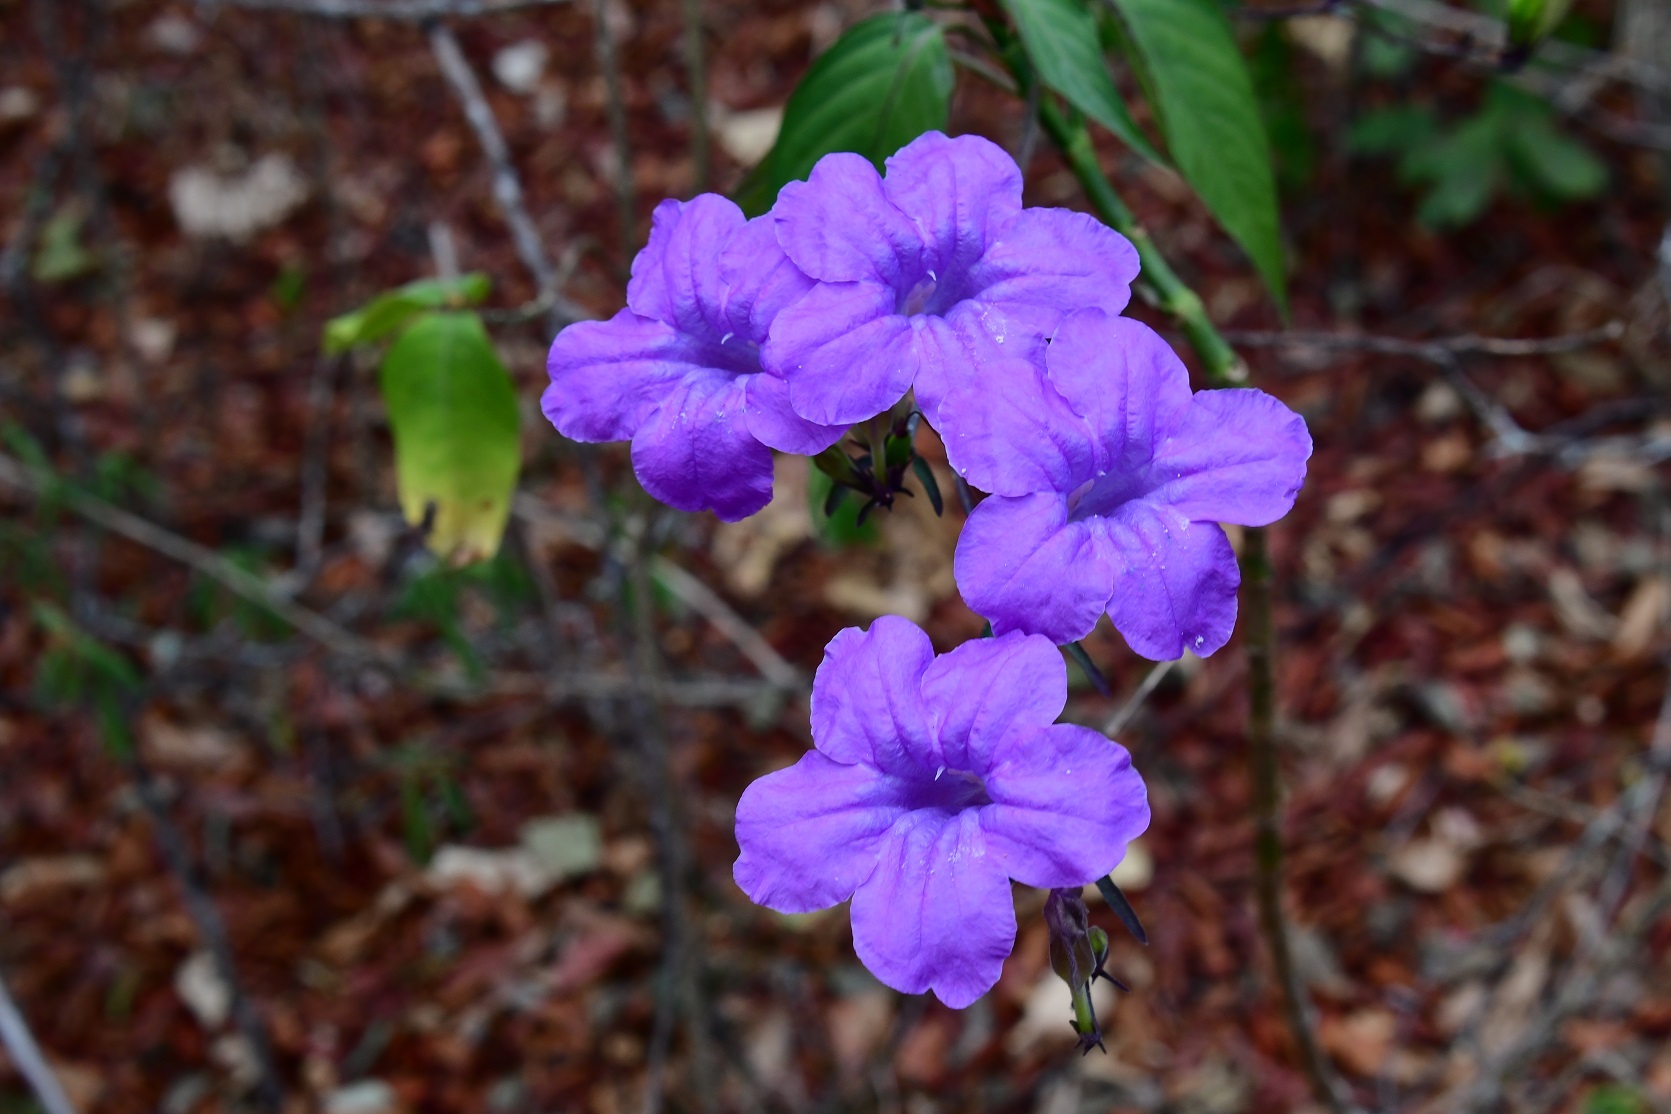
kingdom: Plantae
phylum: Tracheophyta
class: Magnoliopsida
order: Lamiales
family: Acanthaceae
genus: Ruellia
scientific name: Ruellia breedlovei
